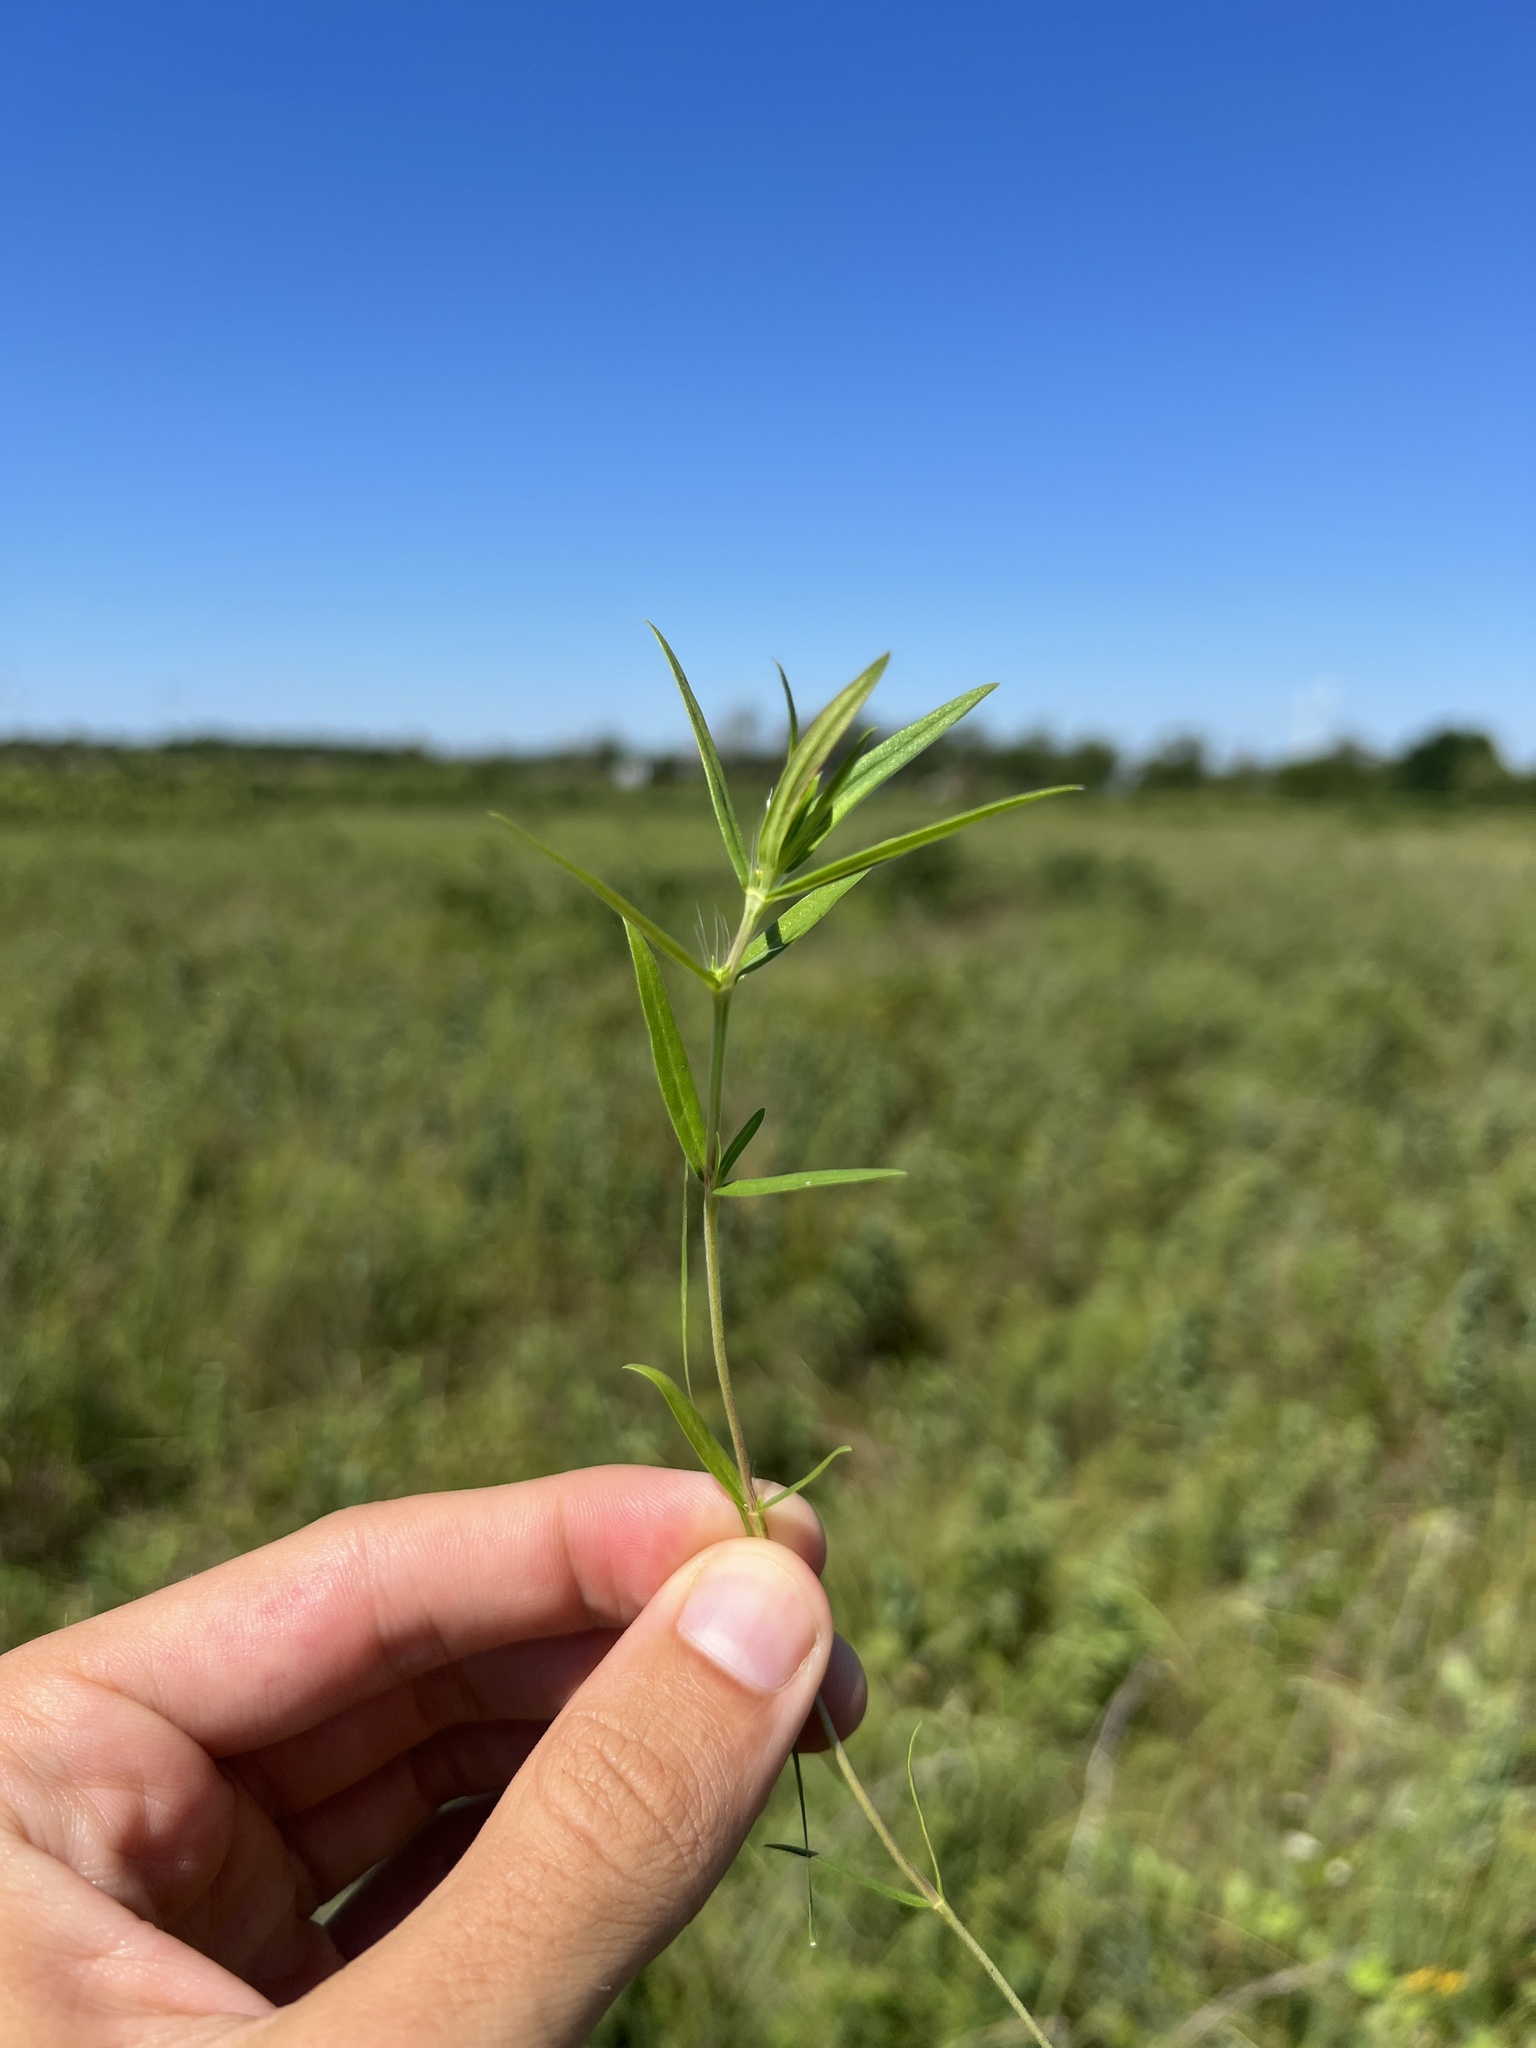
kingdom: Plantae
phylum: Tracheophyta
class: Magnoliopsida
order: Gentianales
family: Rubiaceae
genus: Hexasepalum
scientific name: Hexasepalum teres
